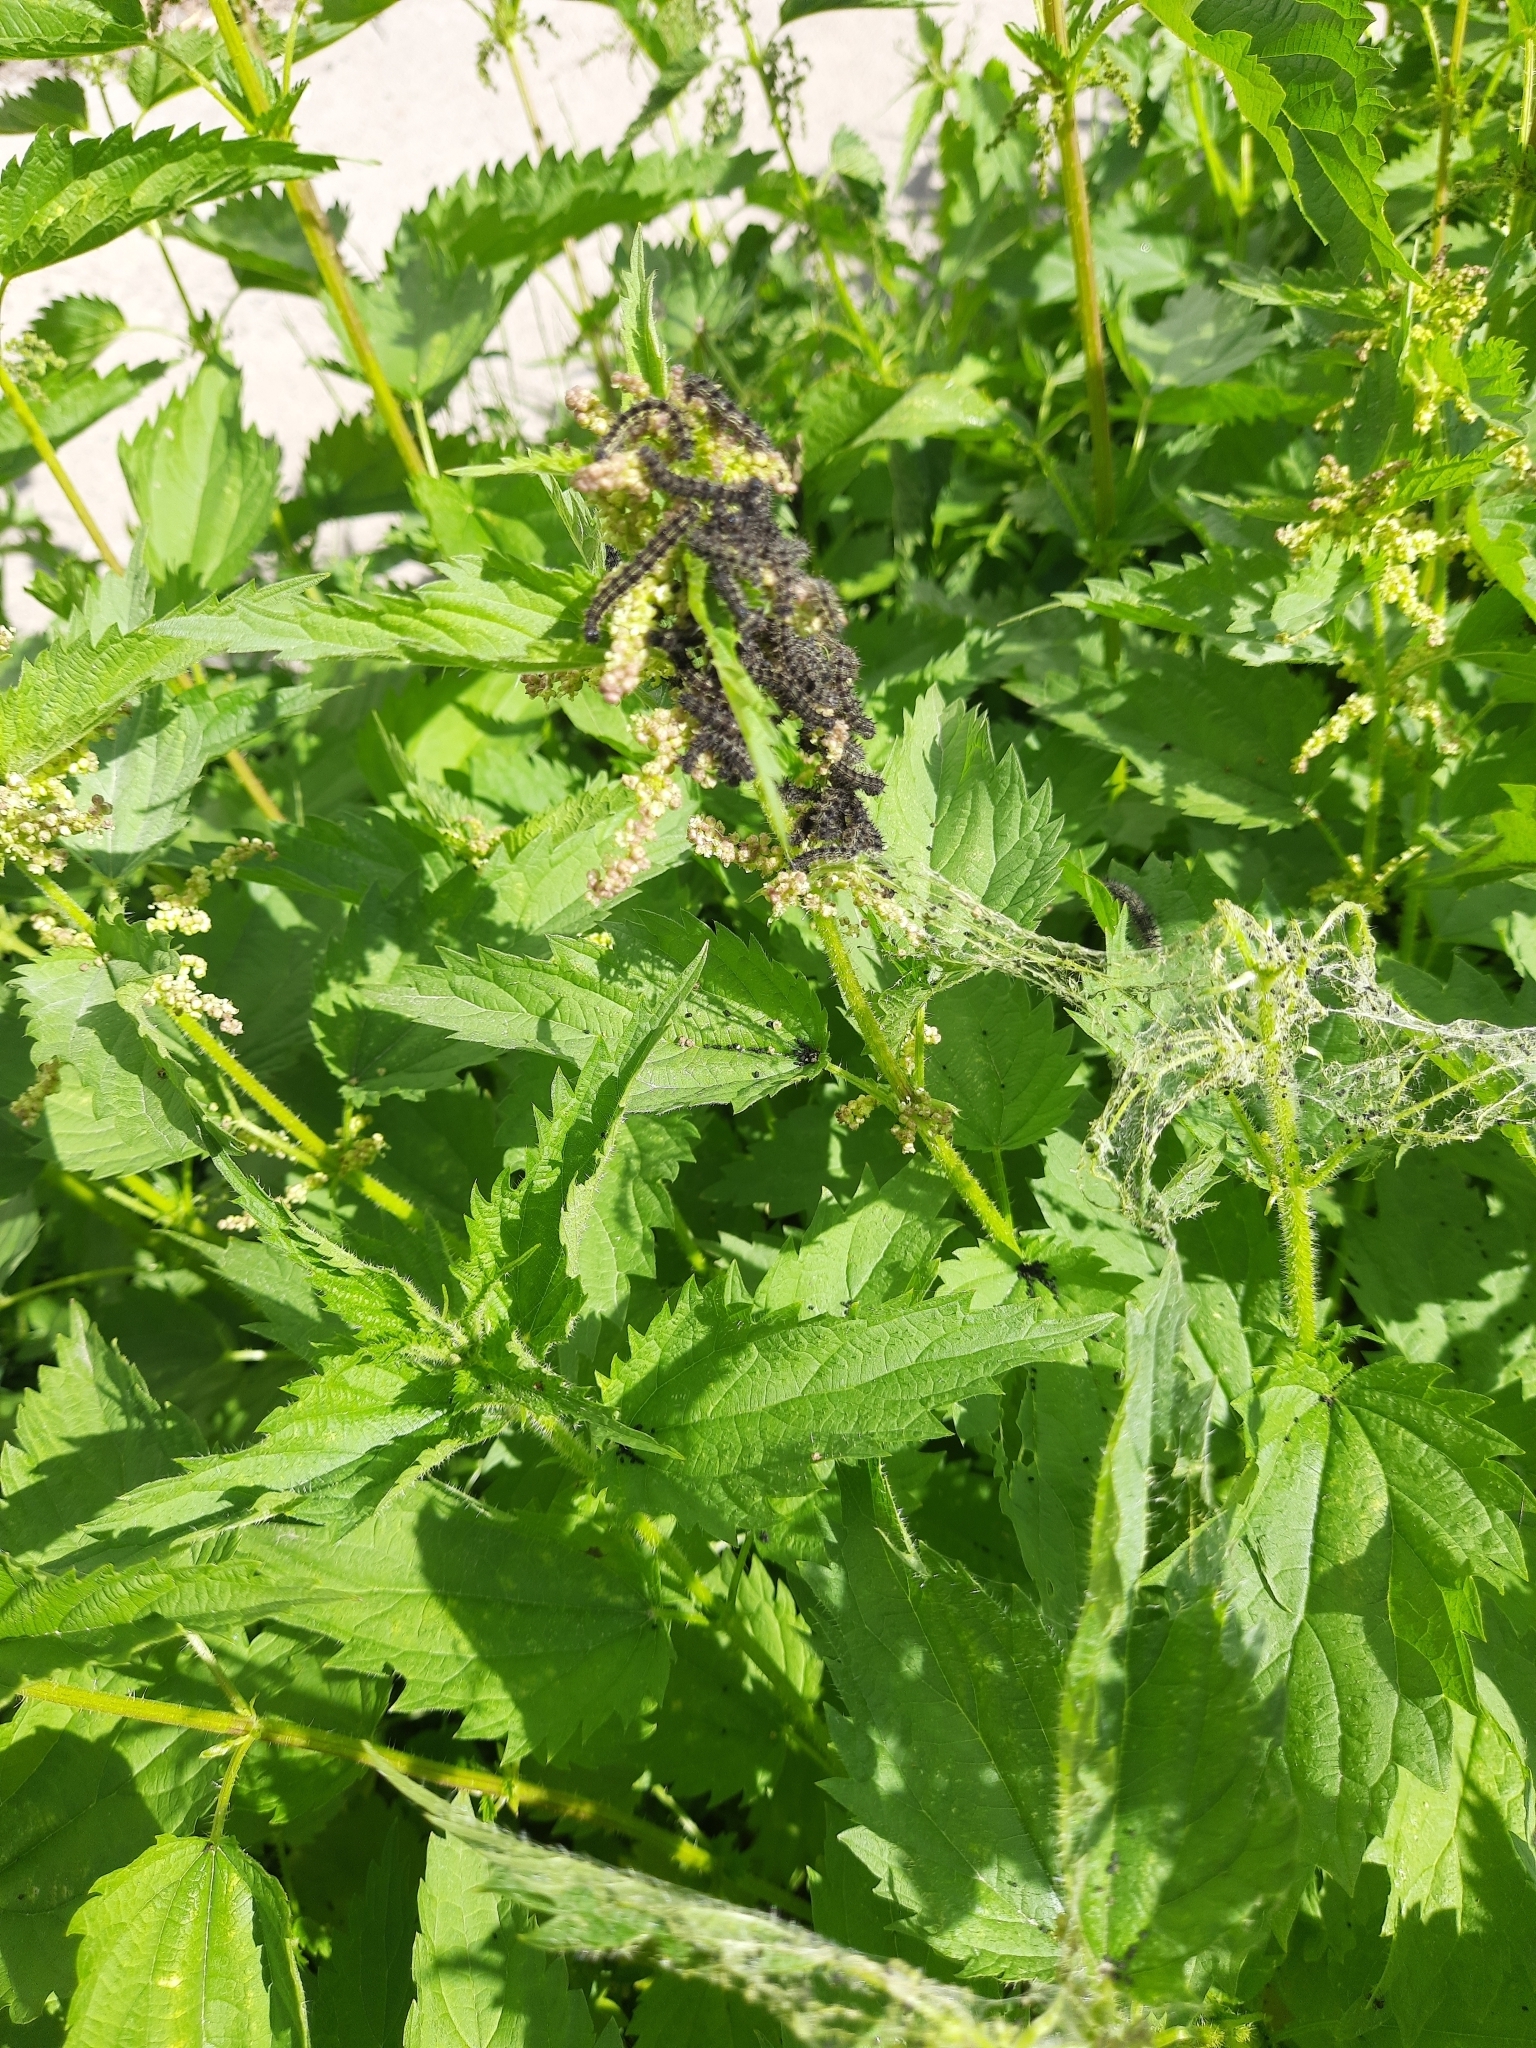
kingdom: Animalia
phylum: Arthropoda
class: Insecta
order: Lepidoptera
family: Nymphalidae
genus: Aglais
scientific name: Aglais urticae
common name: Small tortoiseshell
